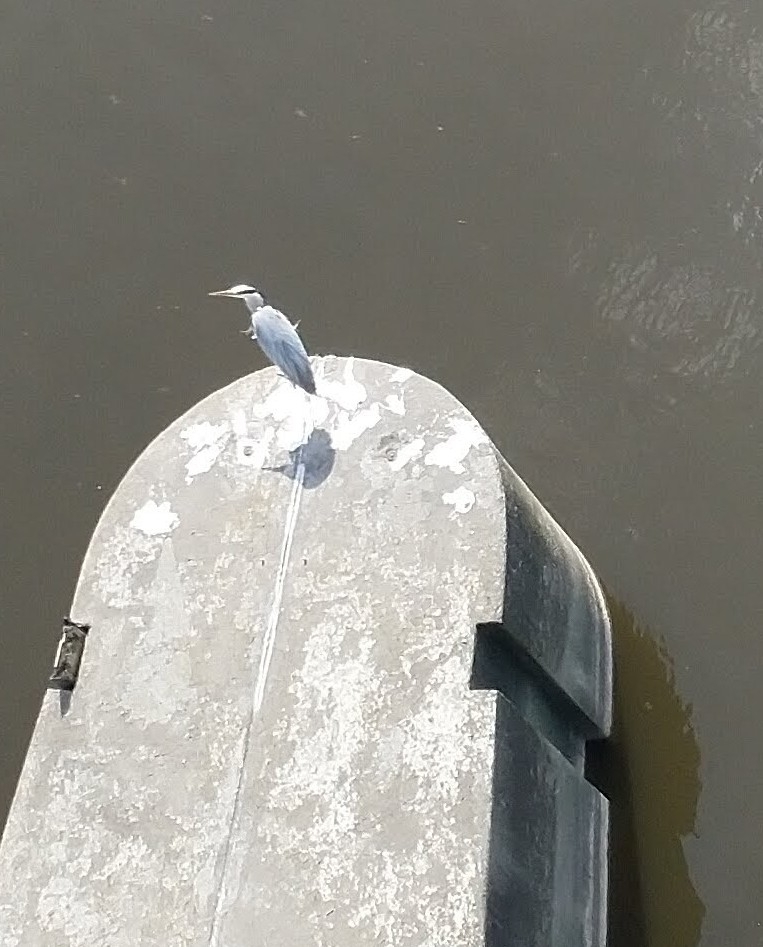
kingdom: Animalia
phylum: Chordata
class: Aves
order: Pelecaniformes
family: Ardeidae
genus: Ardea
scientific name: Ardea cinerea
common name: Grey heron
